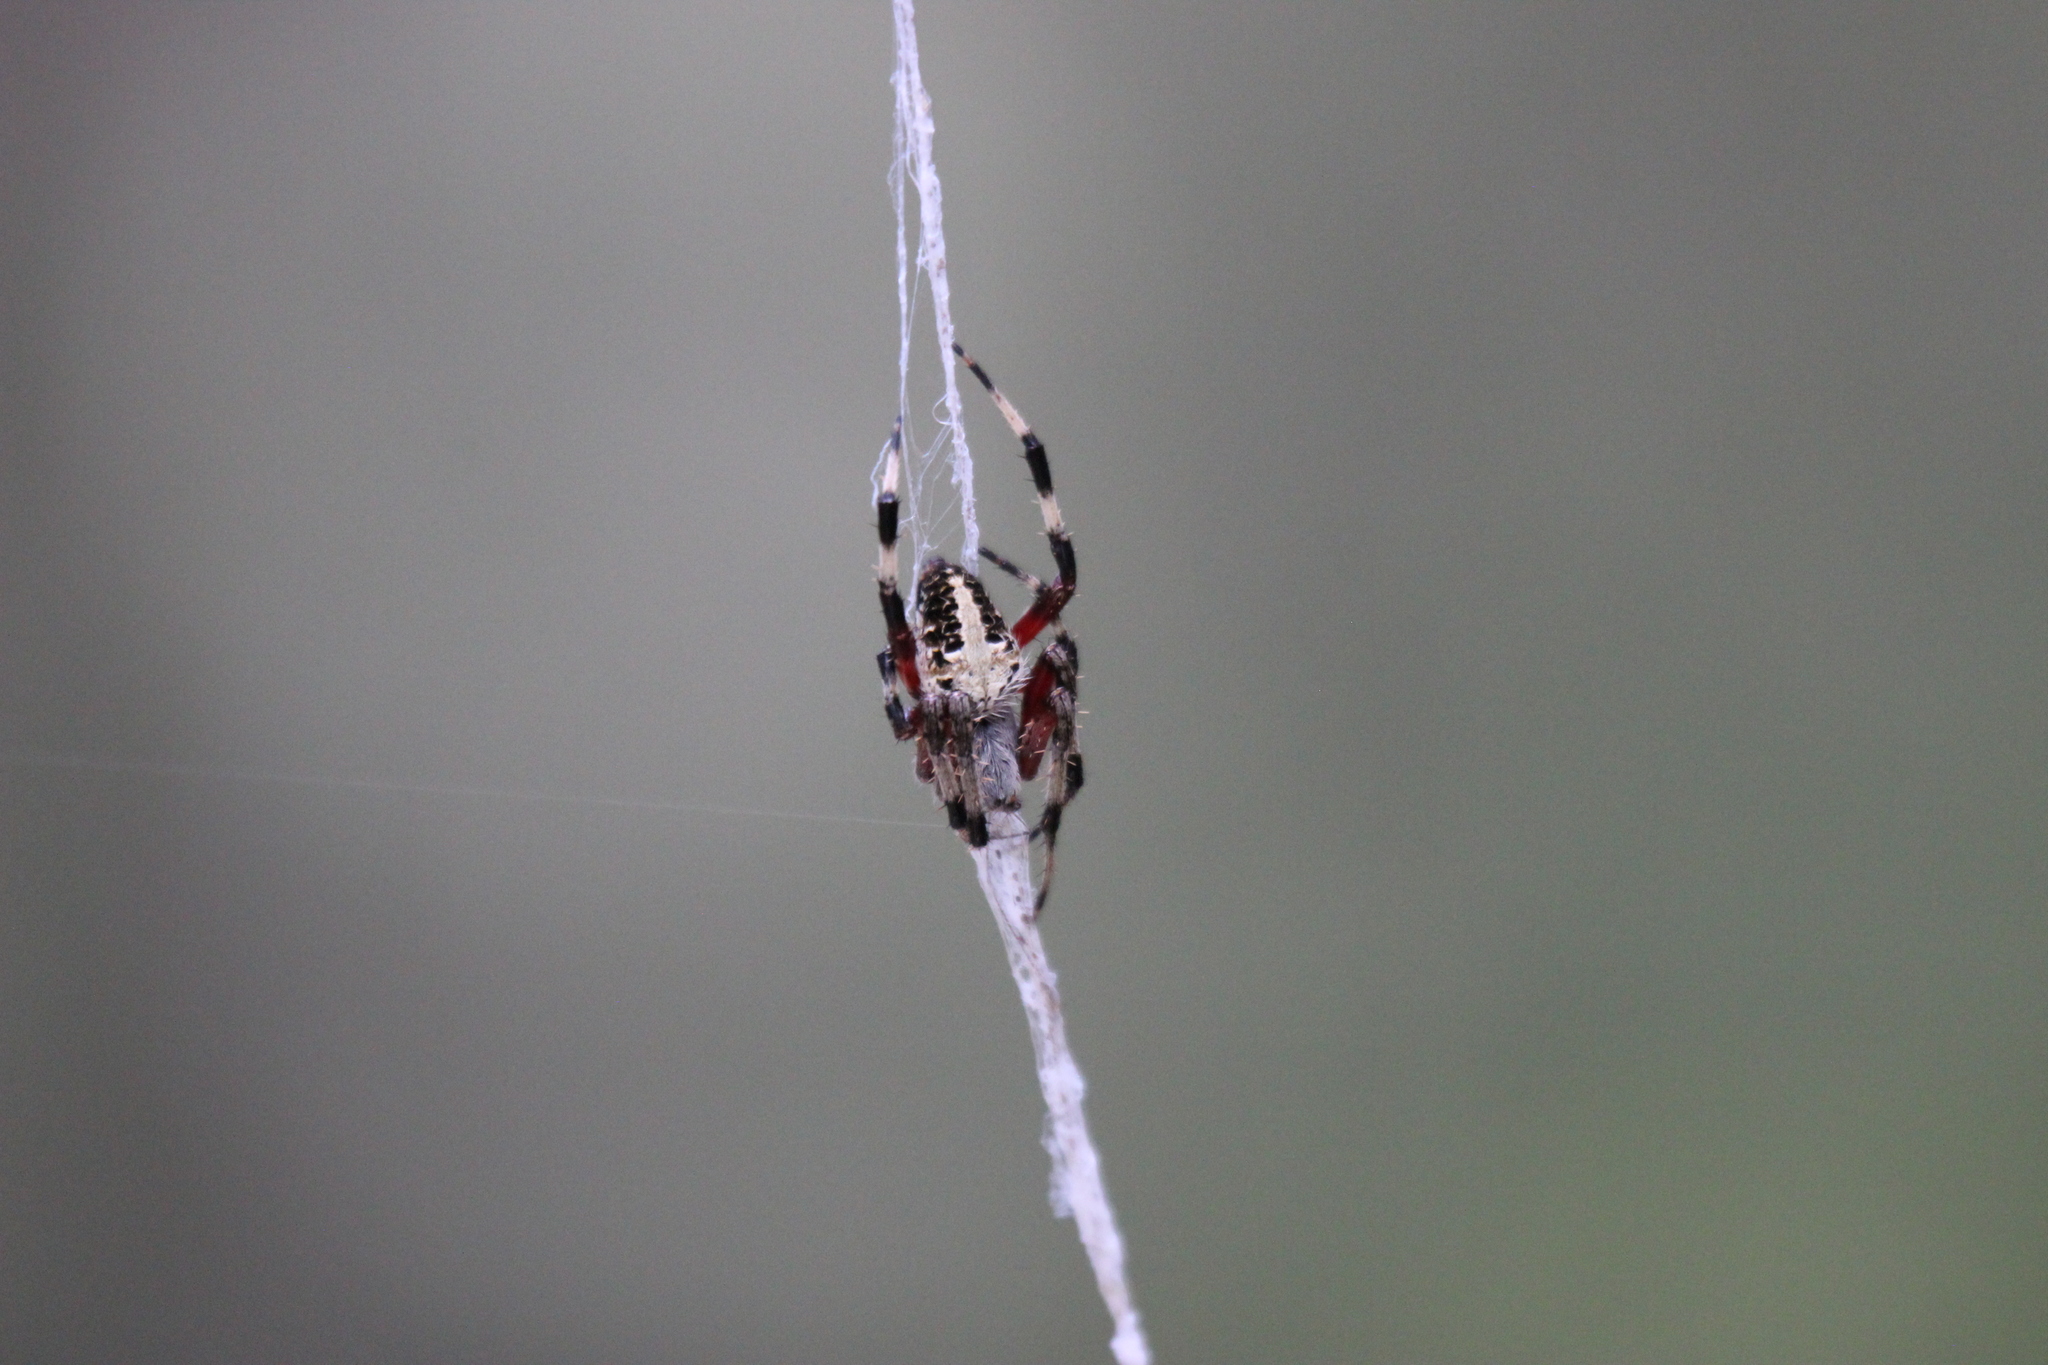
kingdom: Animalia
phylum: Arthropoda
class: Arachnida
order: Araneae
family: Araneidae
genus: Neoscona
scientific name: Neoscona domiciliorum
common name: Red-femured spotted orbweaver
